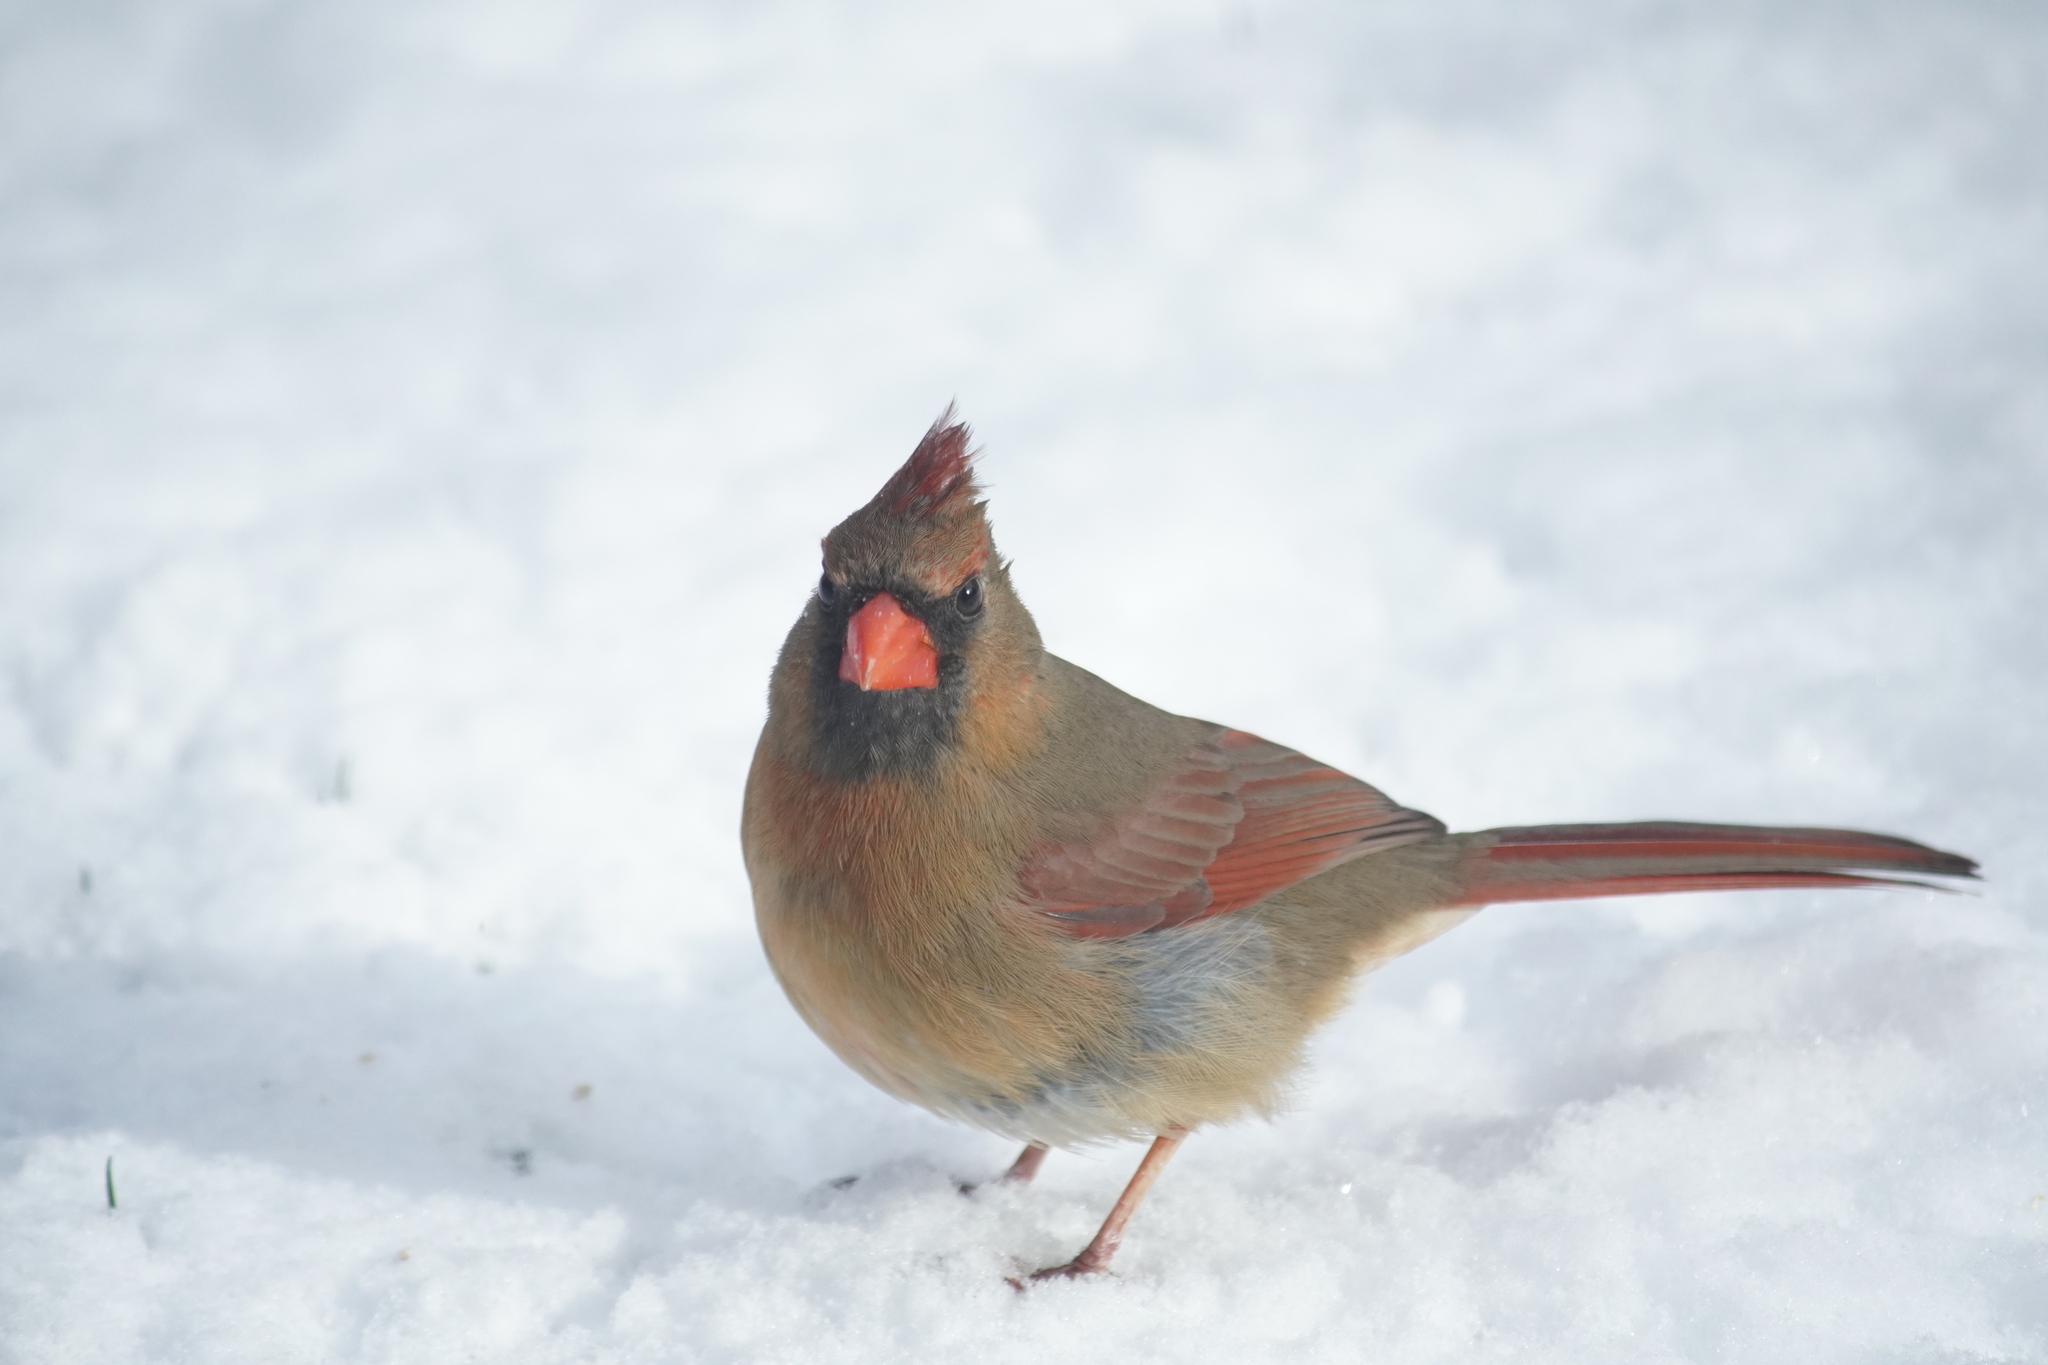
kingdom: Animalia
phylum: Chordata
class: Aves
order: Passeriformes
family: Cardinalidae
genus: Cardinalis
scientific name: Cardinalis cardinalis
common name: Northern cardinal
